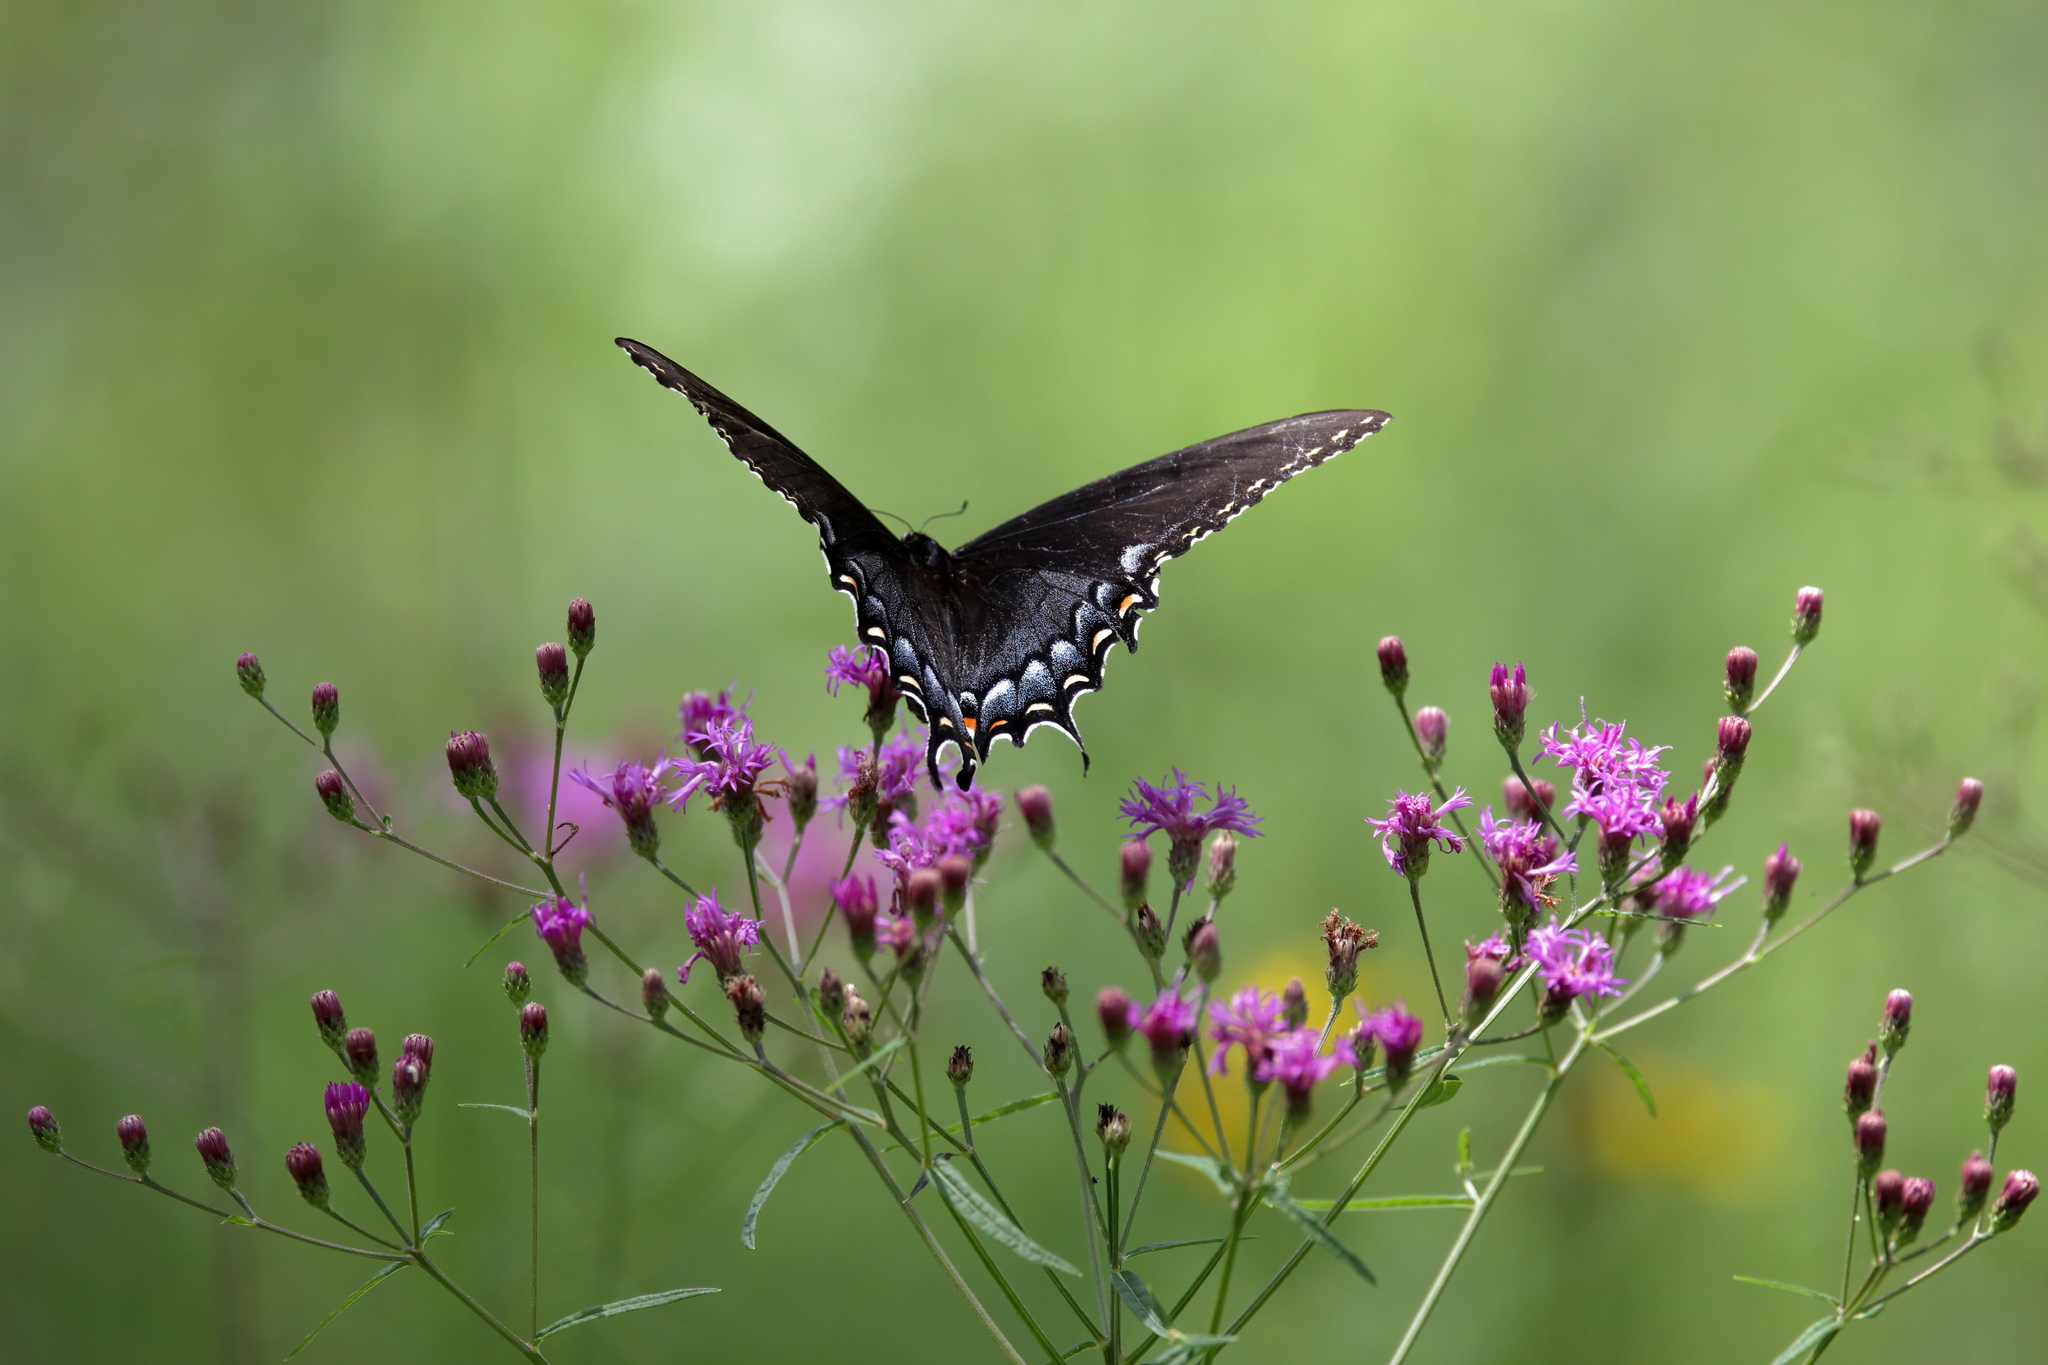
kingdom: Animalia
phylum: Arthropoda
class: Insecta
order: Lepidoptera
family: Papilionidae
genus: Papilio
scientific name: Papilio glaucus
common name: Tiger swallowtail
